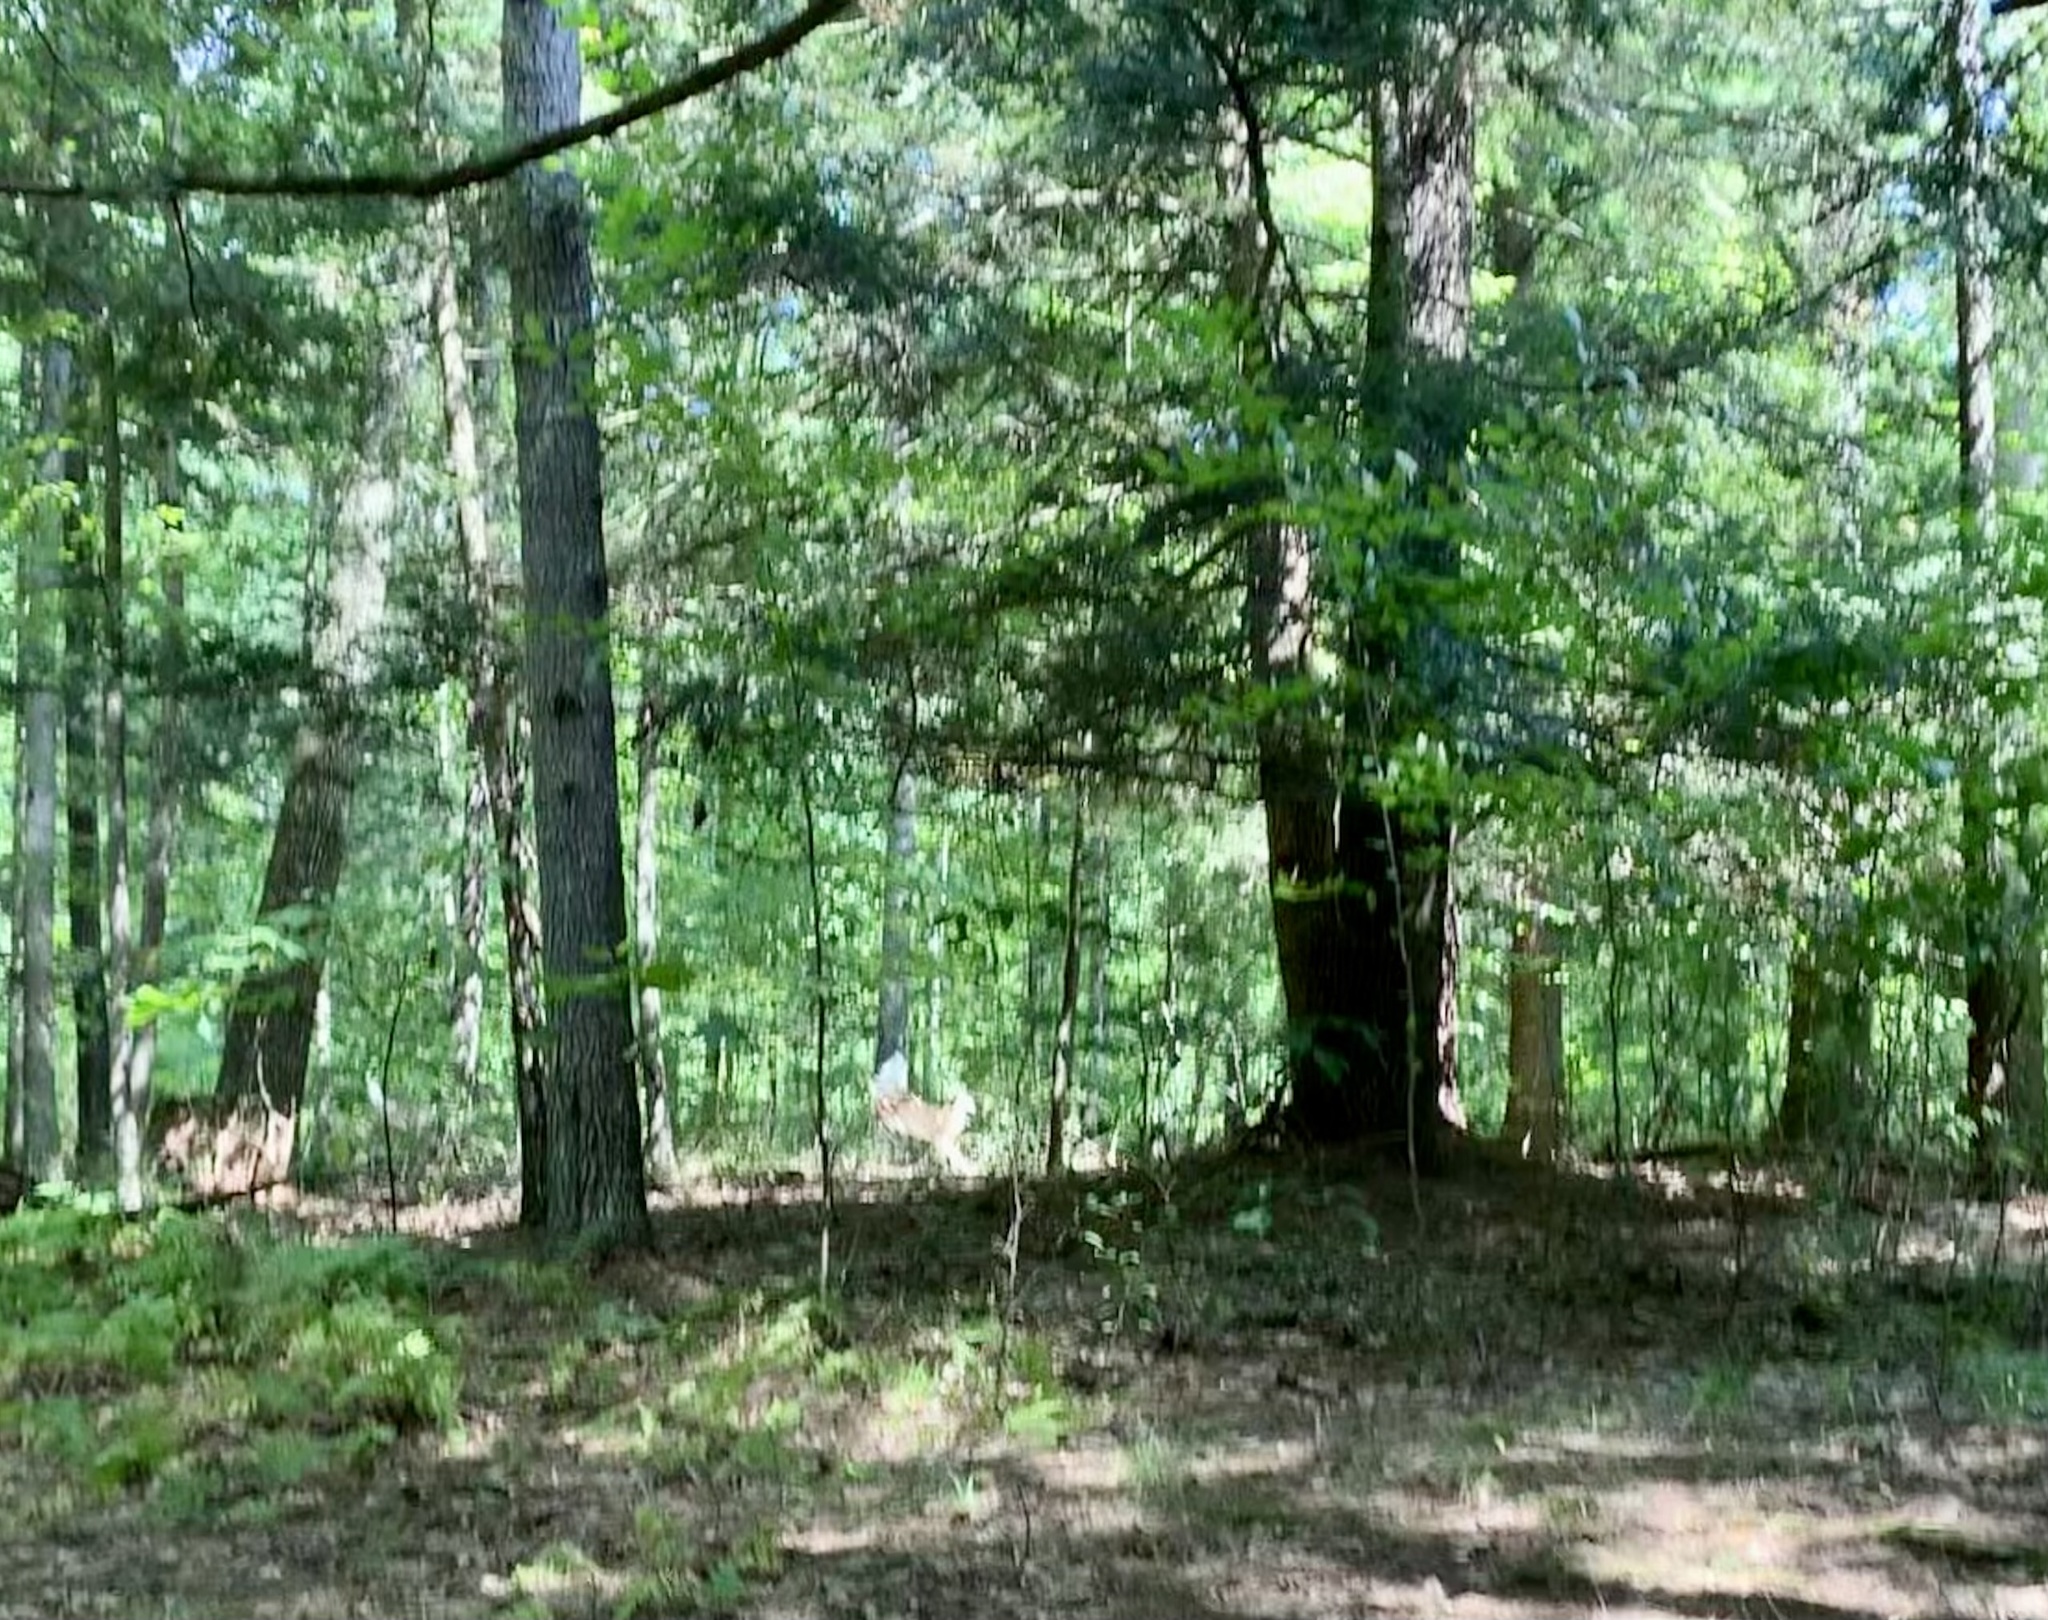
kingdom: Animalia
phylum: Chordata
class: Mammalia
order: Artiodactyla
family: Cervidae
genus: Odocoileus
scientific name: Odocoileus virginianus
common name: White-tailed deer
